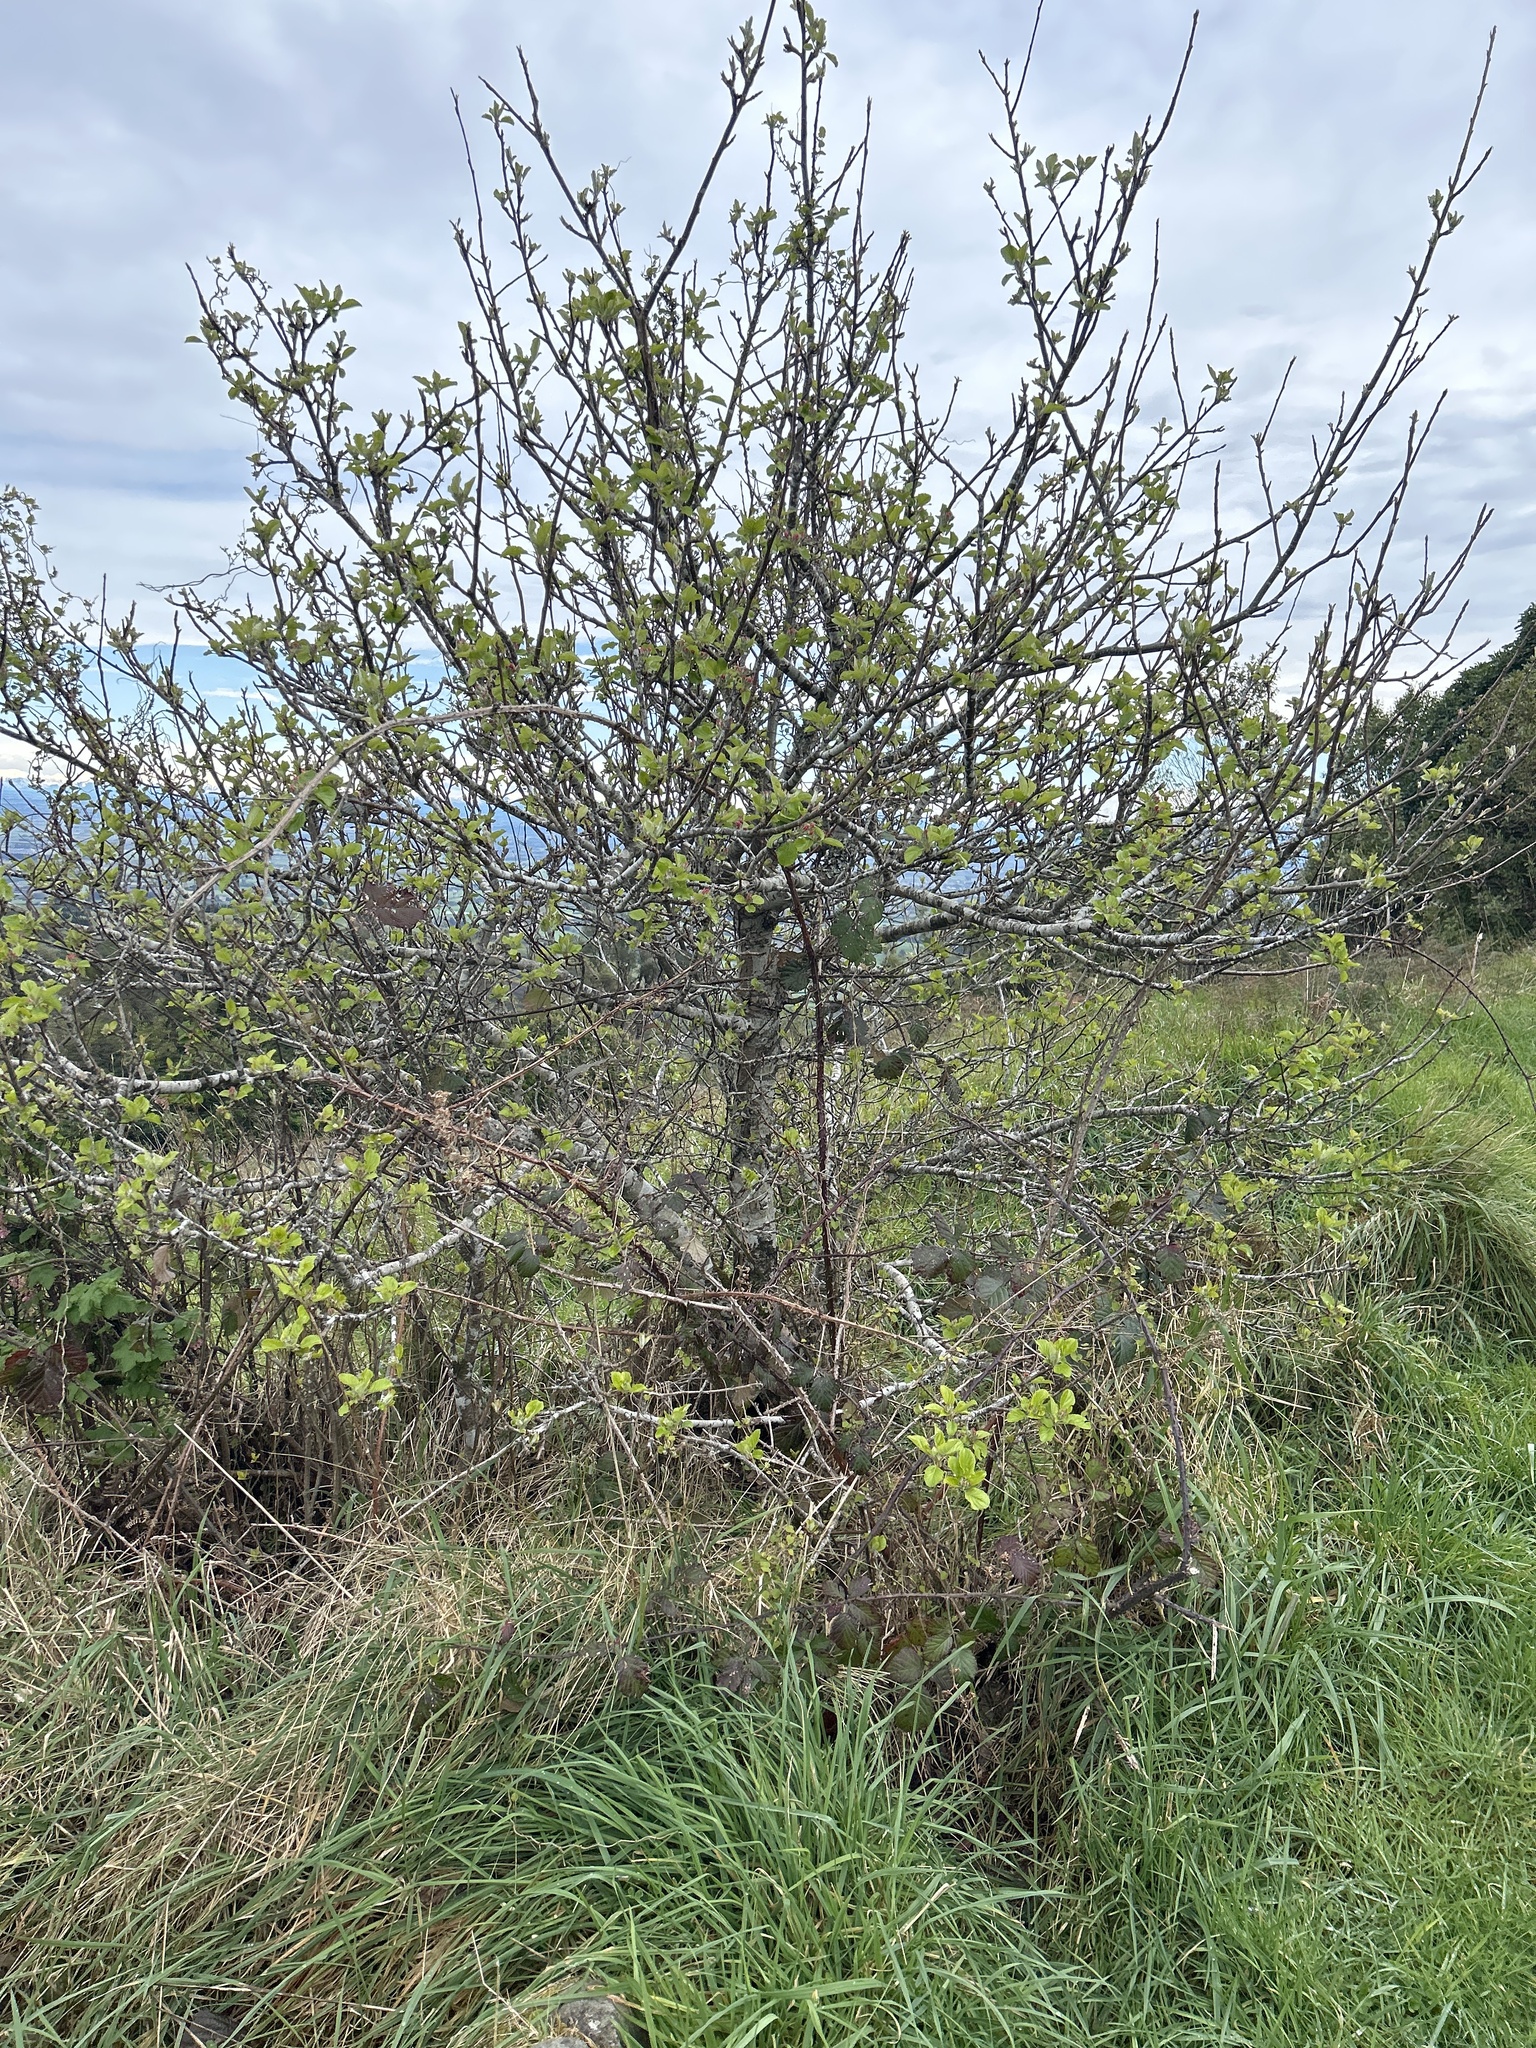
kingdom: Plantae
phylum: Tracheophyta
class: Magnoliopsida
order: Rosales
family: Rosaceae
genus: Malus
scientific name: Malus domestica
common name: Apple
